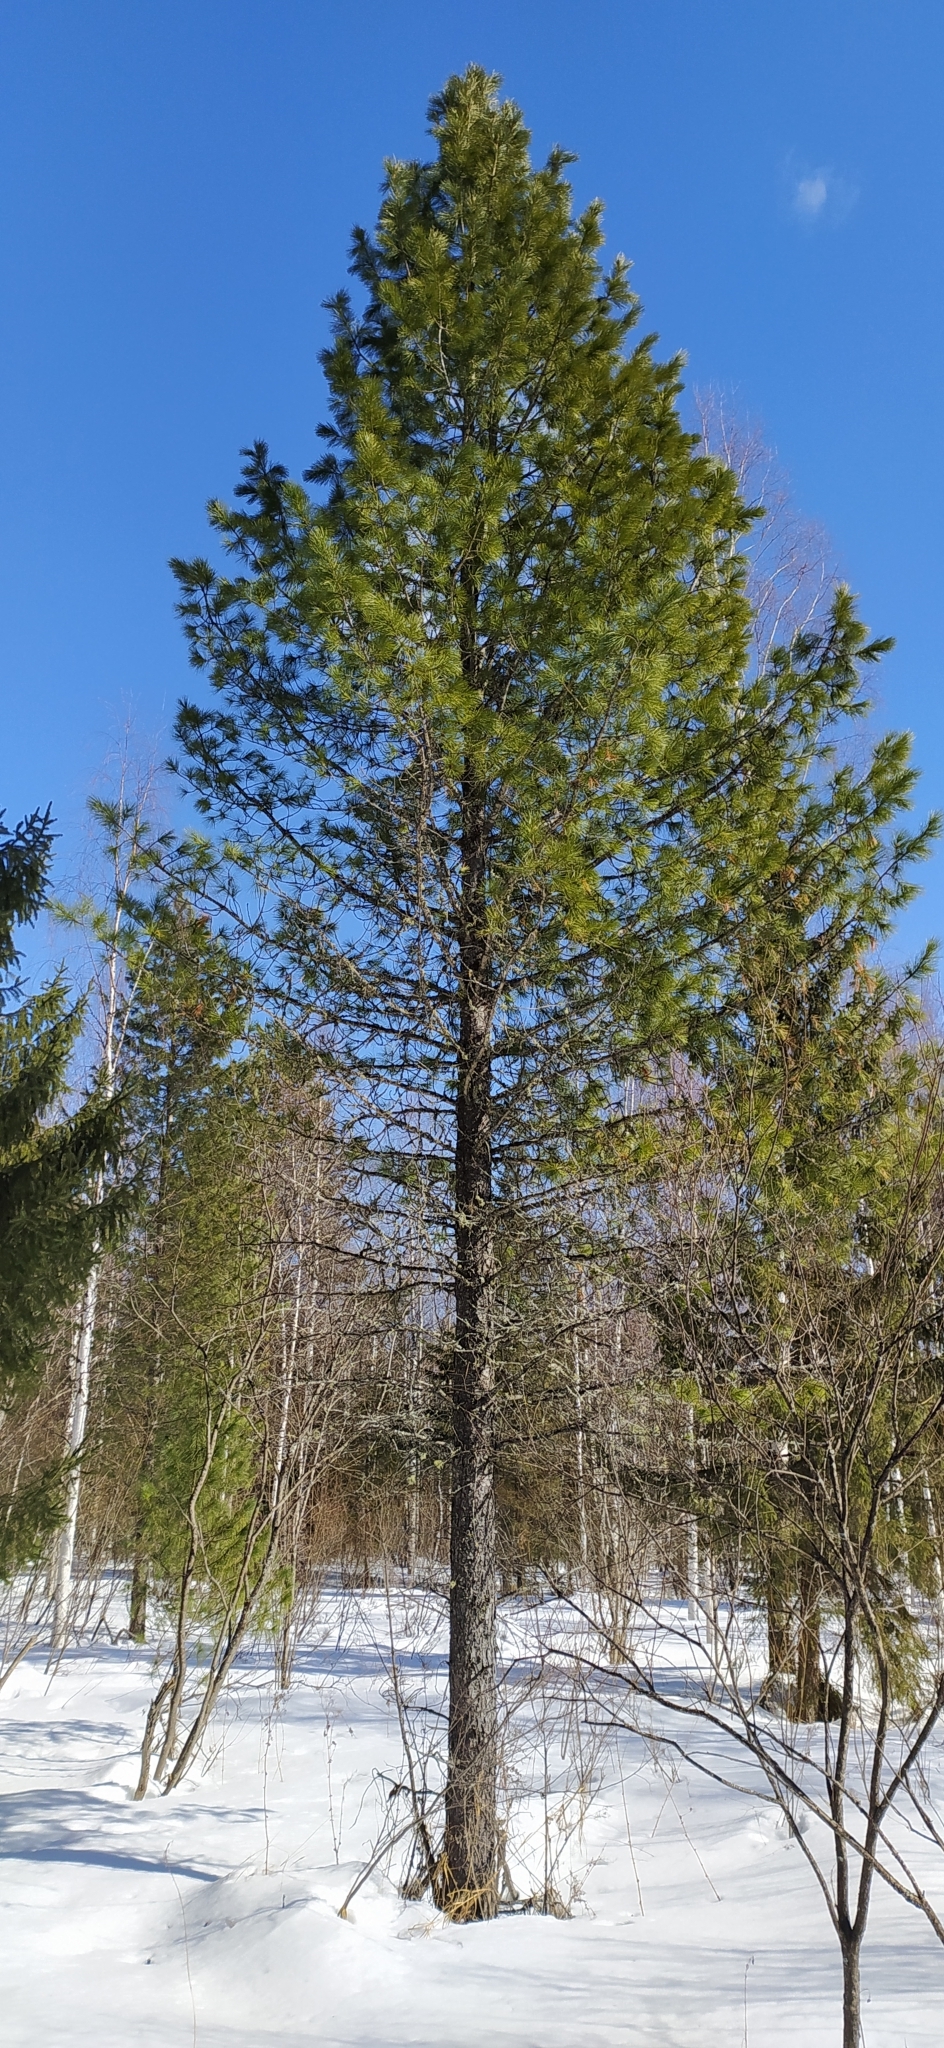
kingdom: Plantae
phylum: Tracheophyta
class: Pinopsida
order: Pinales
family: Pinaceae
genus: Pinus
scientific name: Pinus sibirica
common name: Siberian pine
